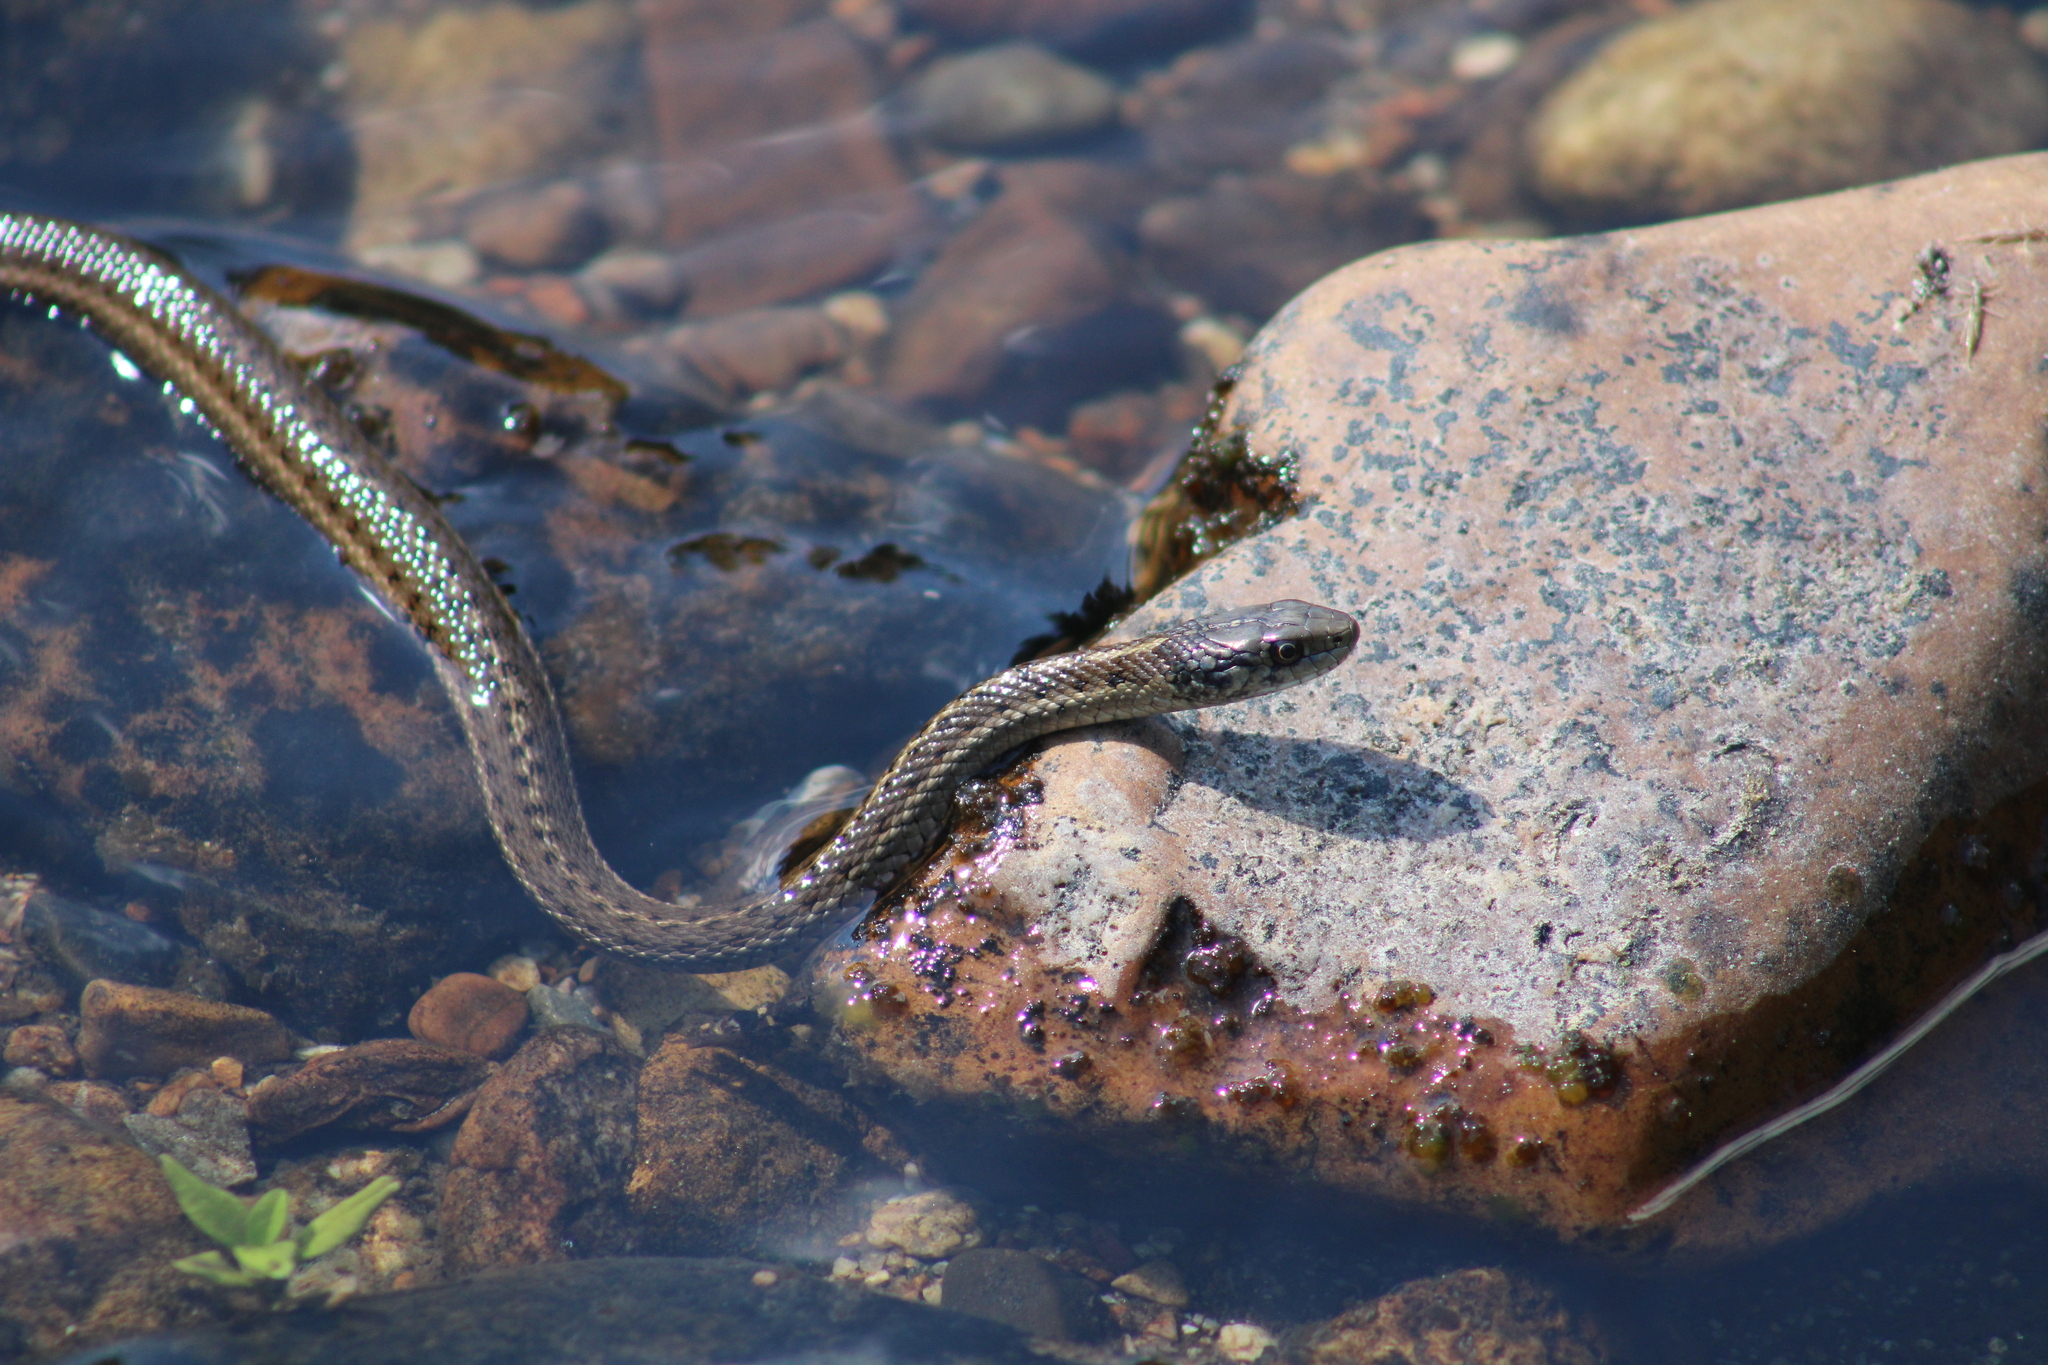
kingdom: Animalia
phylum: Chordata
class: Squamata
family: Colubridae
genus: Thamnophis
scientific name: Thamnophis elegans
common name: Western terrestrial garter snake
